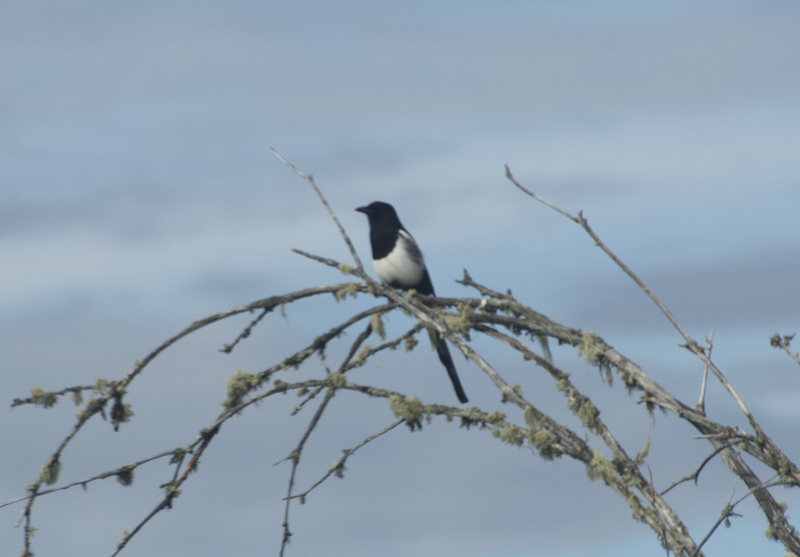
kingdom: Animalia
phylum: Chordata
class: Aves
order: Passeriformes
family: Corvidae
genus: Pica
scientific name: Pica hudsonia
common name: Black-billed magpie
